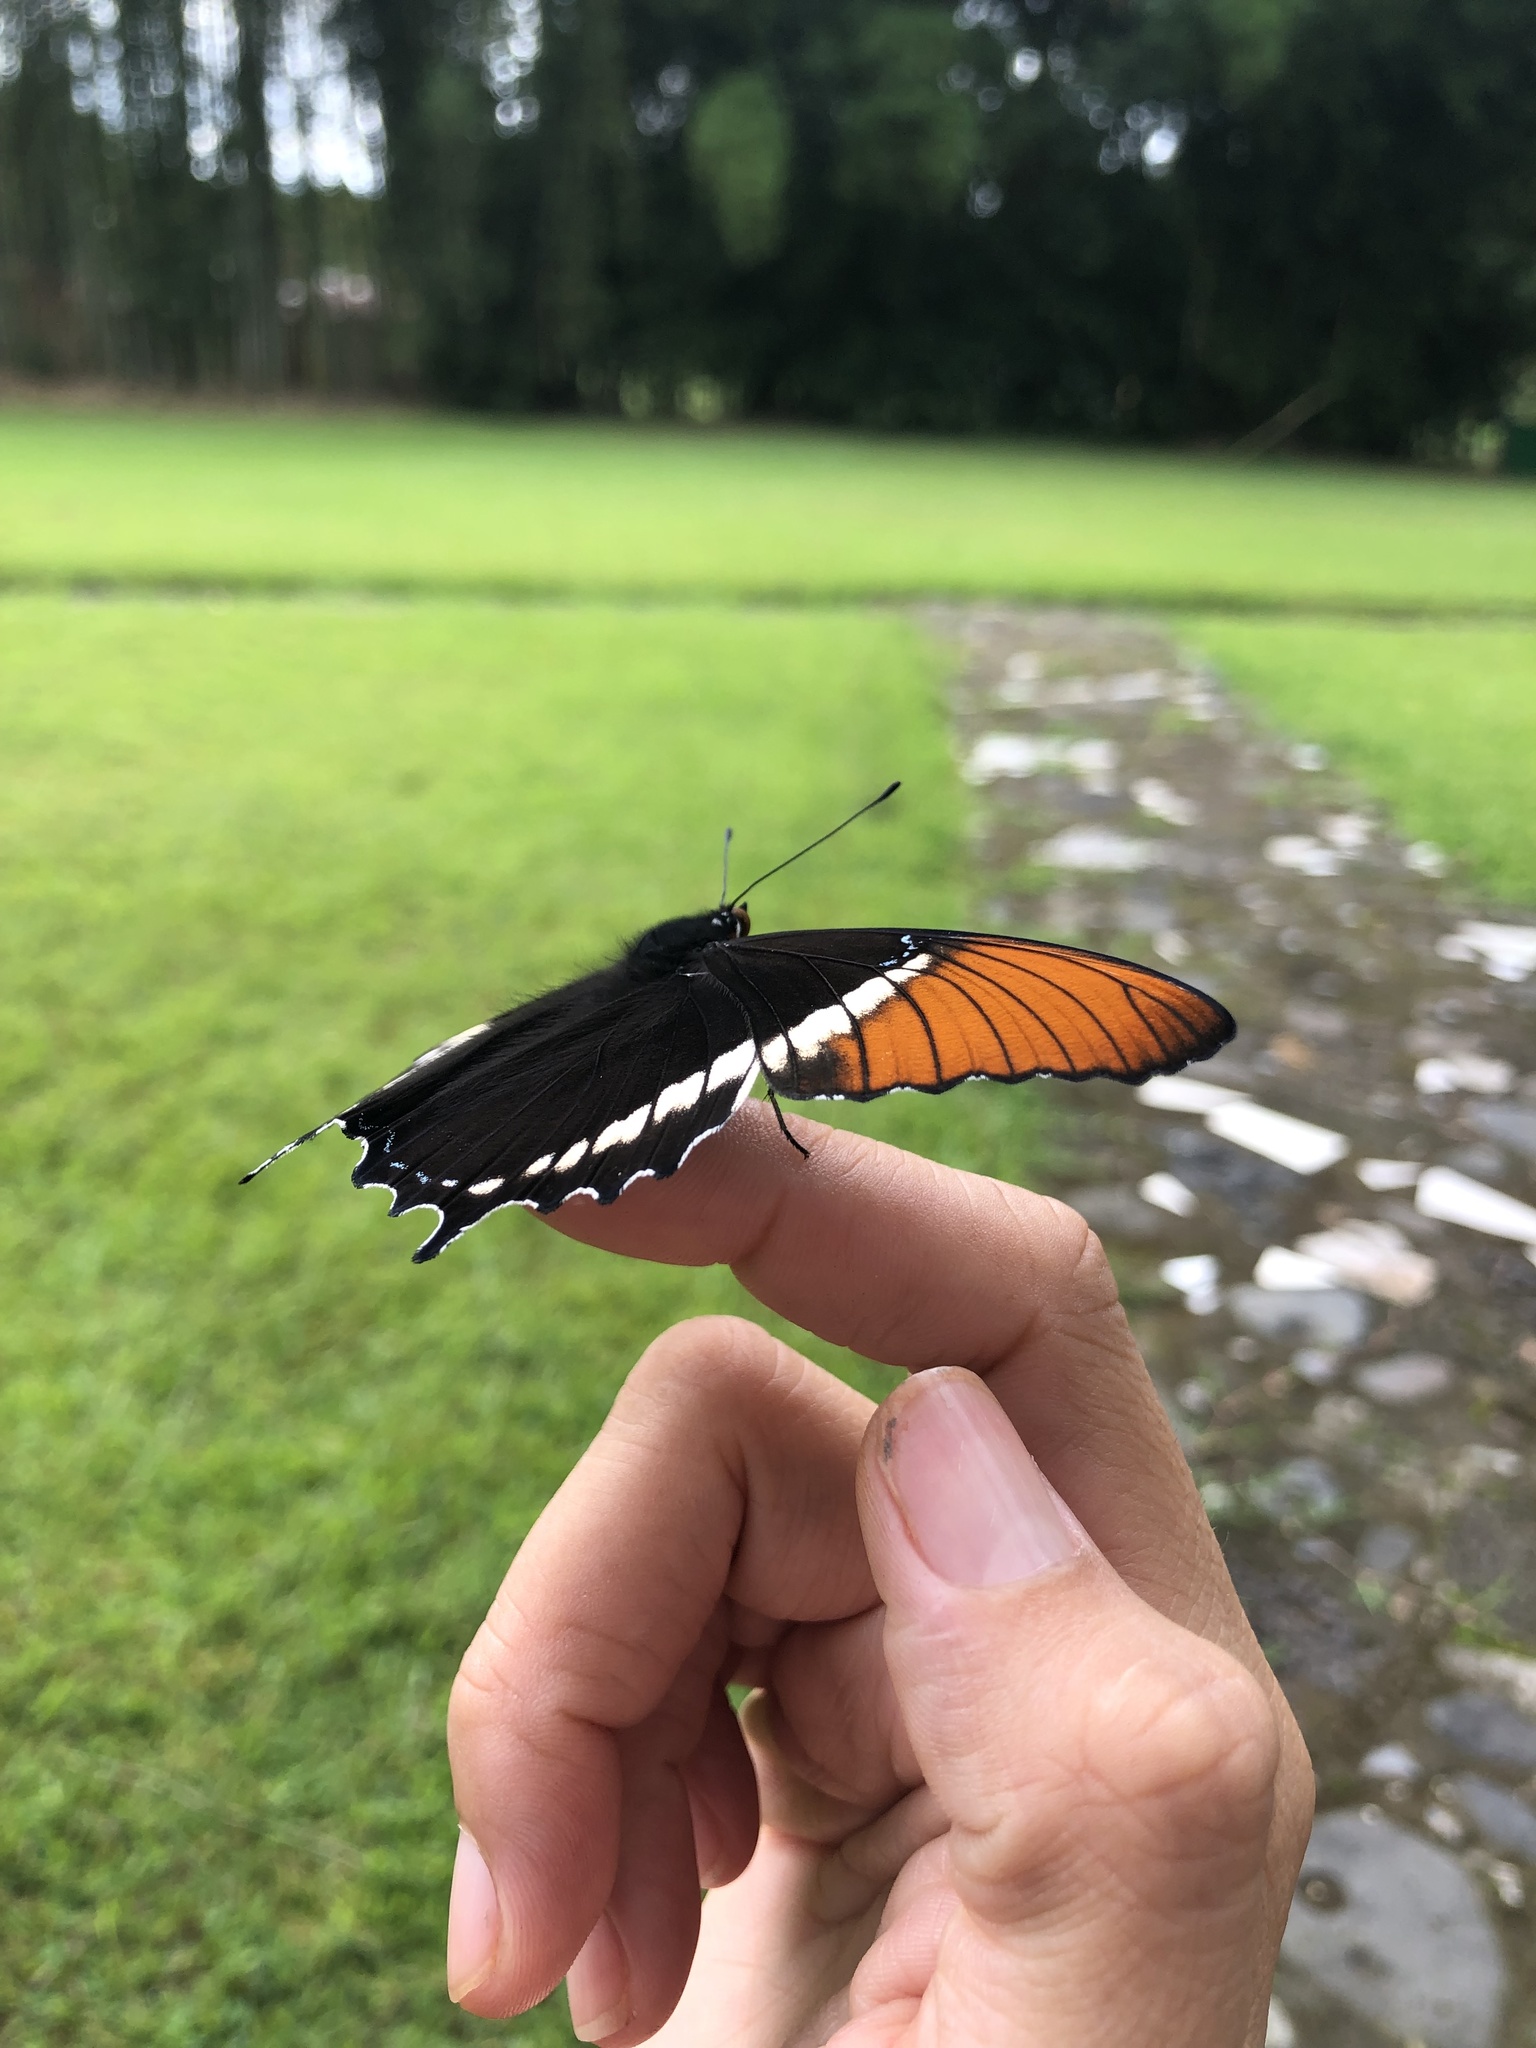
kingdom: Animalia
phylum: Arthropoda
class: Insecta
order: Lepidoptera
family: Nymphalidae
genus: Siproeta
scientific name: Siproeta epaphus
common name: Rusty-tipped page
